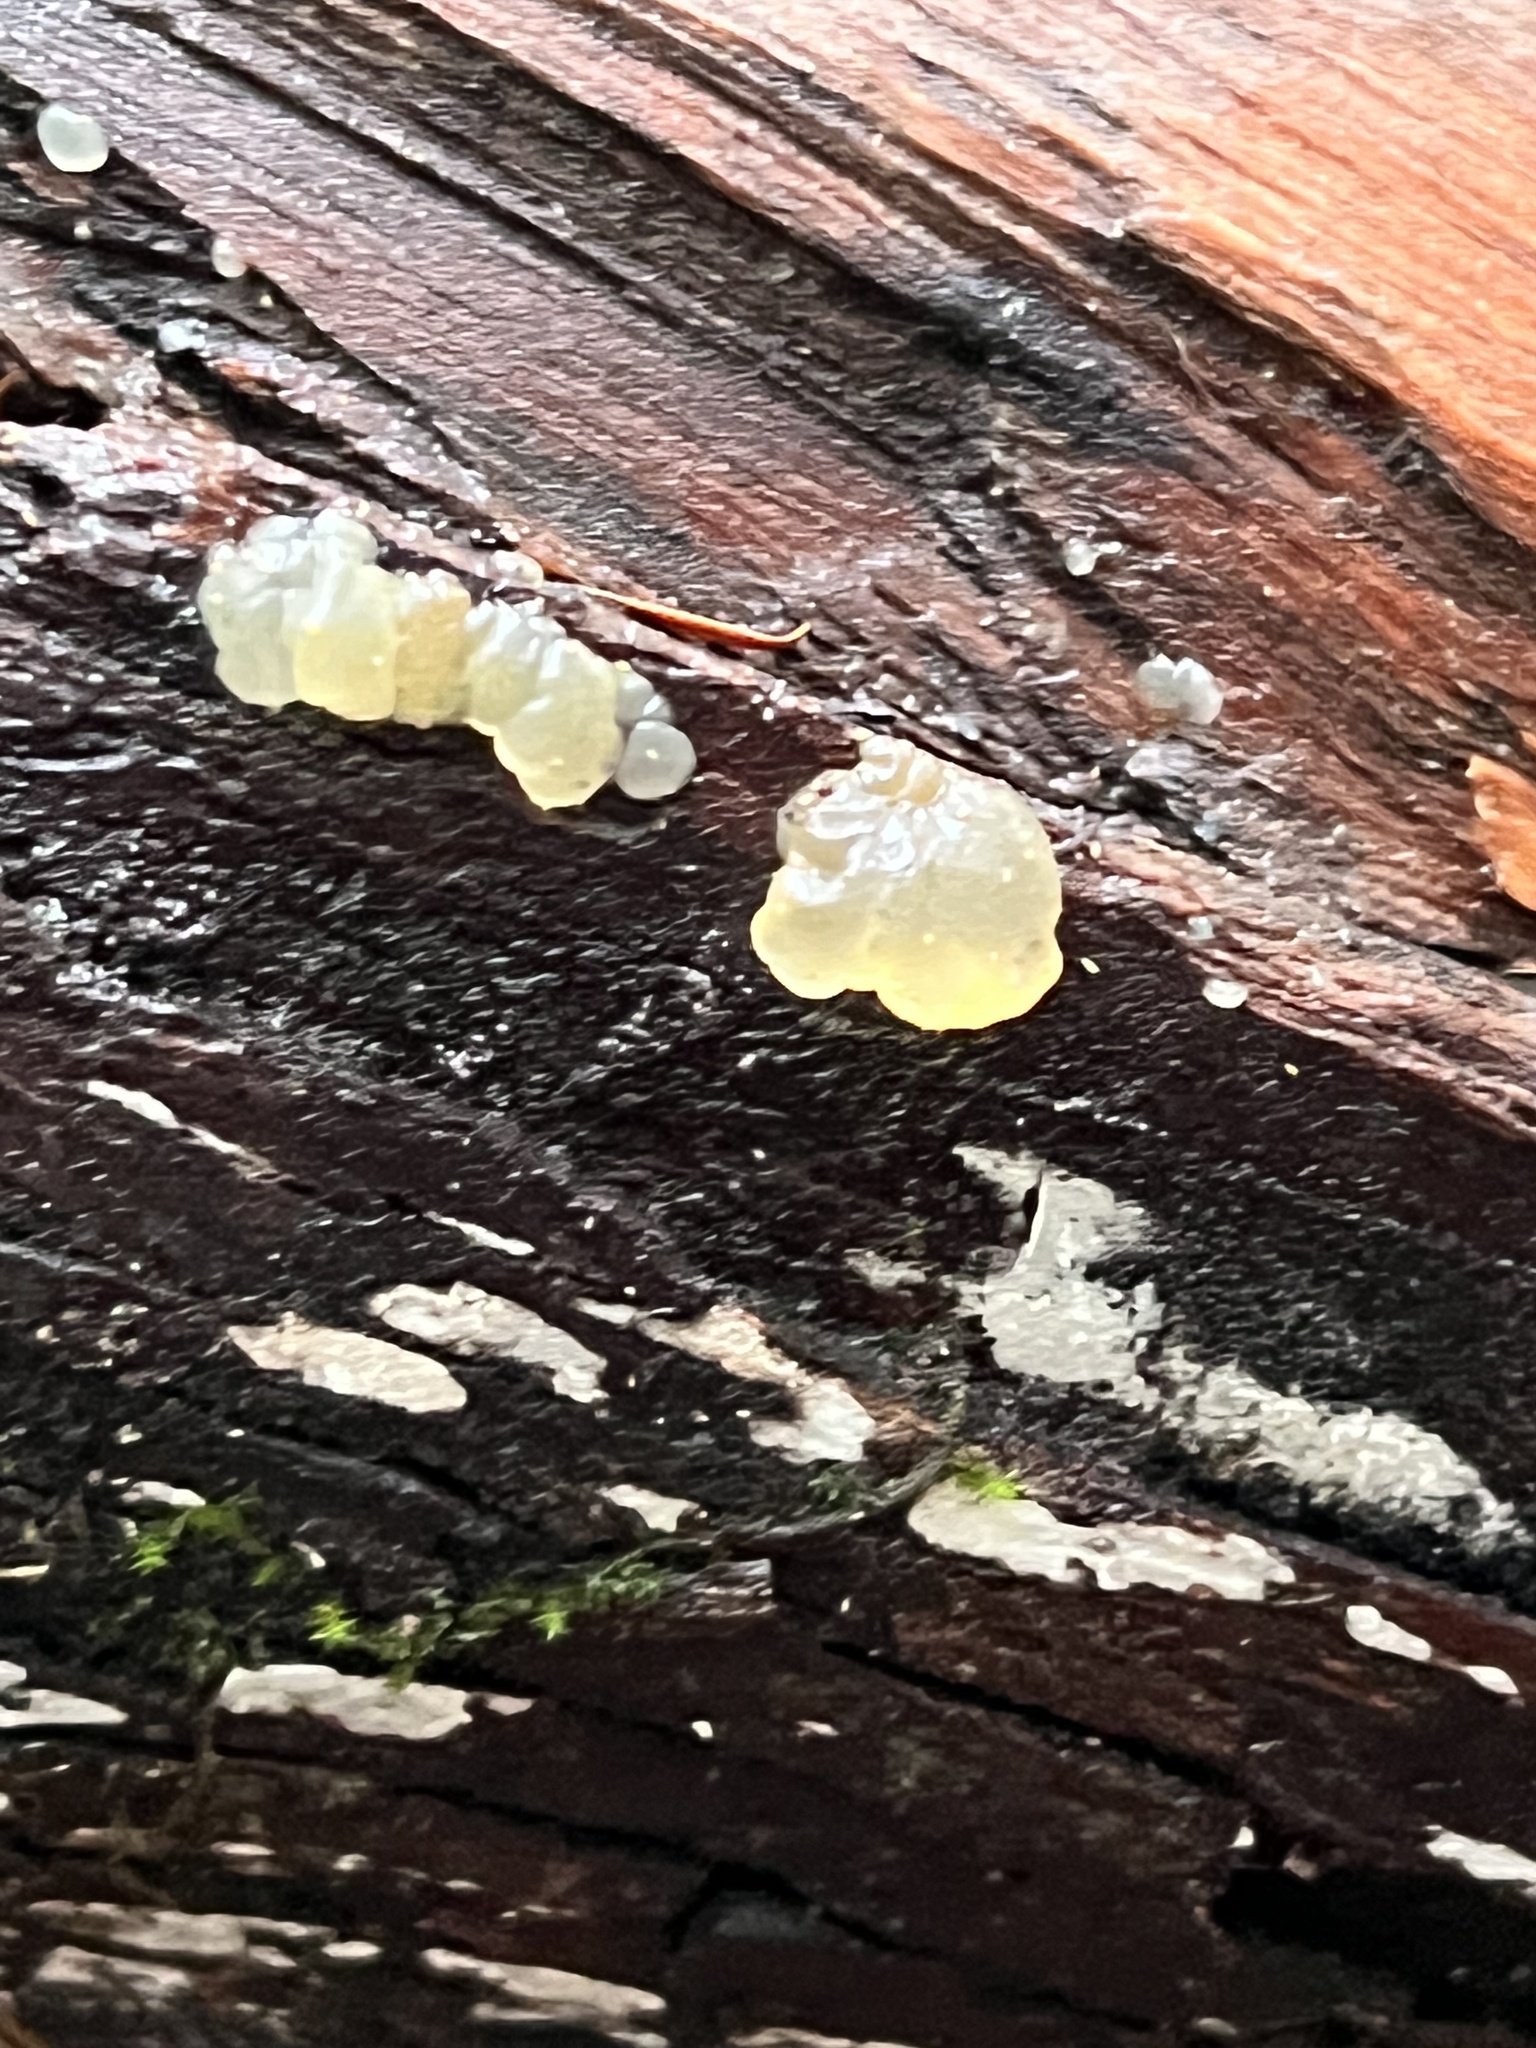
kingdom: Fungi
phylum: Basidiomycota
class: Agaricomycetes
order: Auriculariales
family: Hyaloriaceae
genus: Myxarium
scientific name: Myxarium nucleatum
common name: Crystal brain fungus
